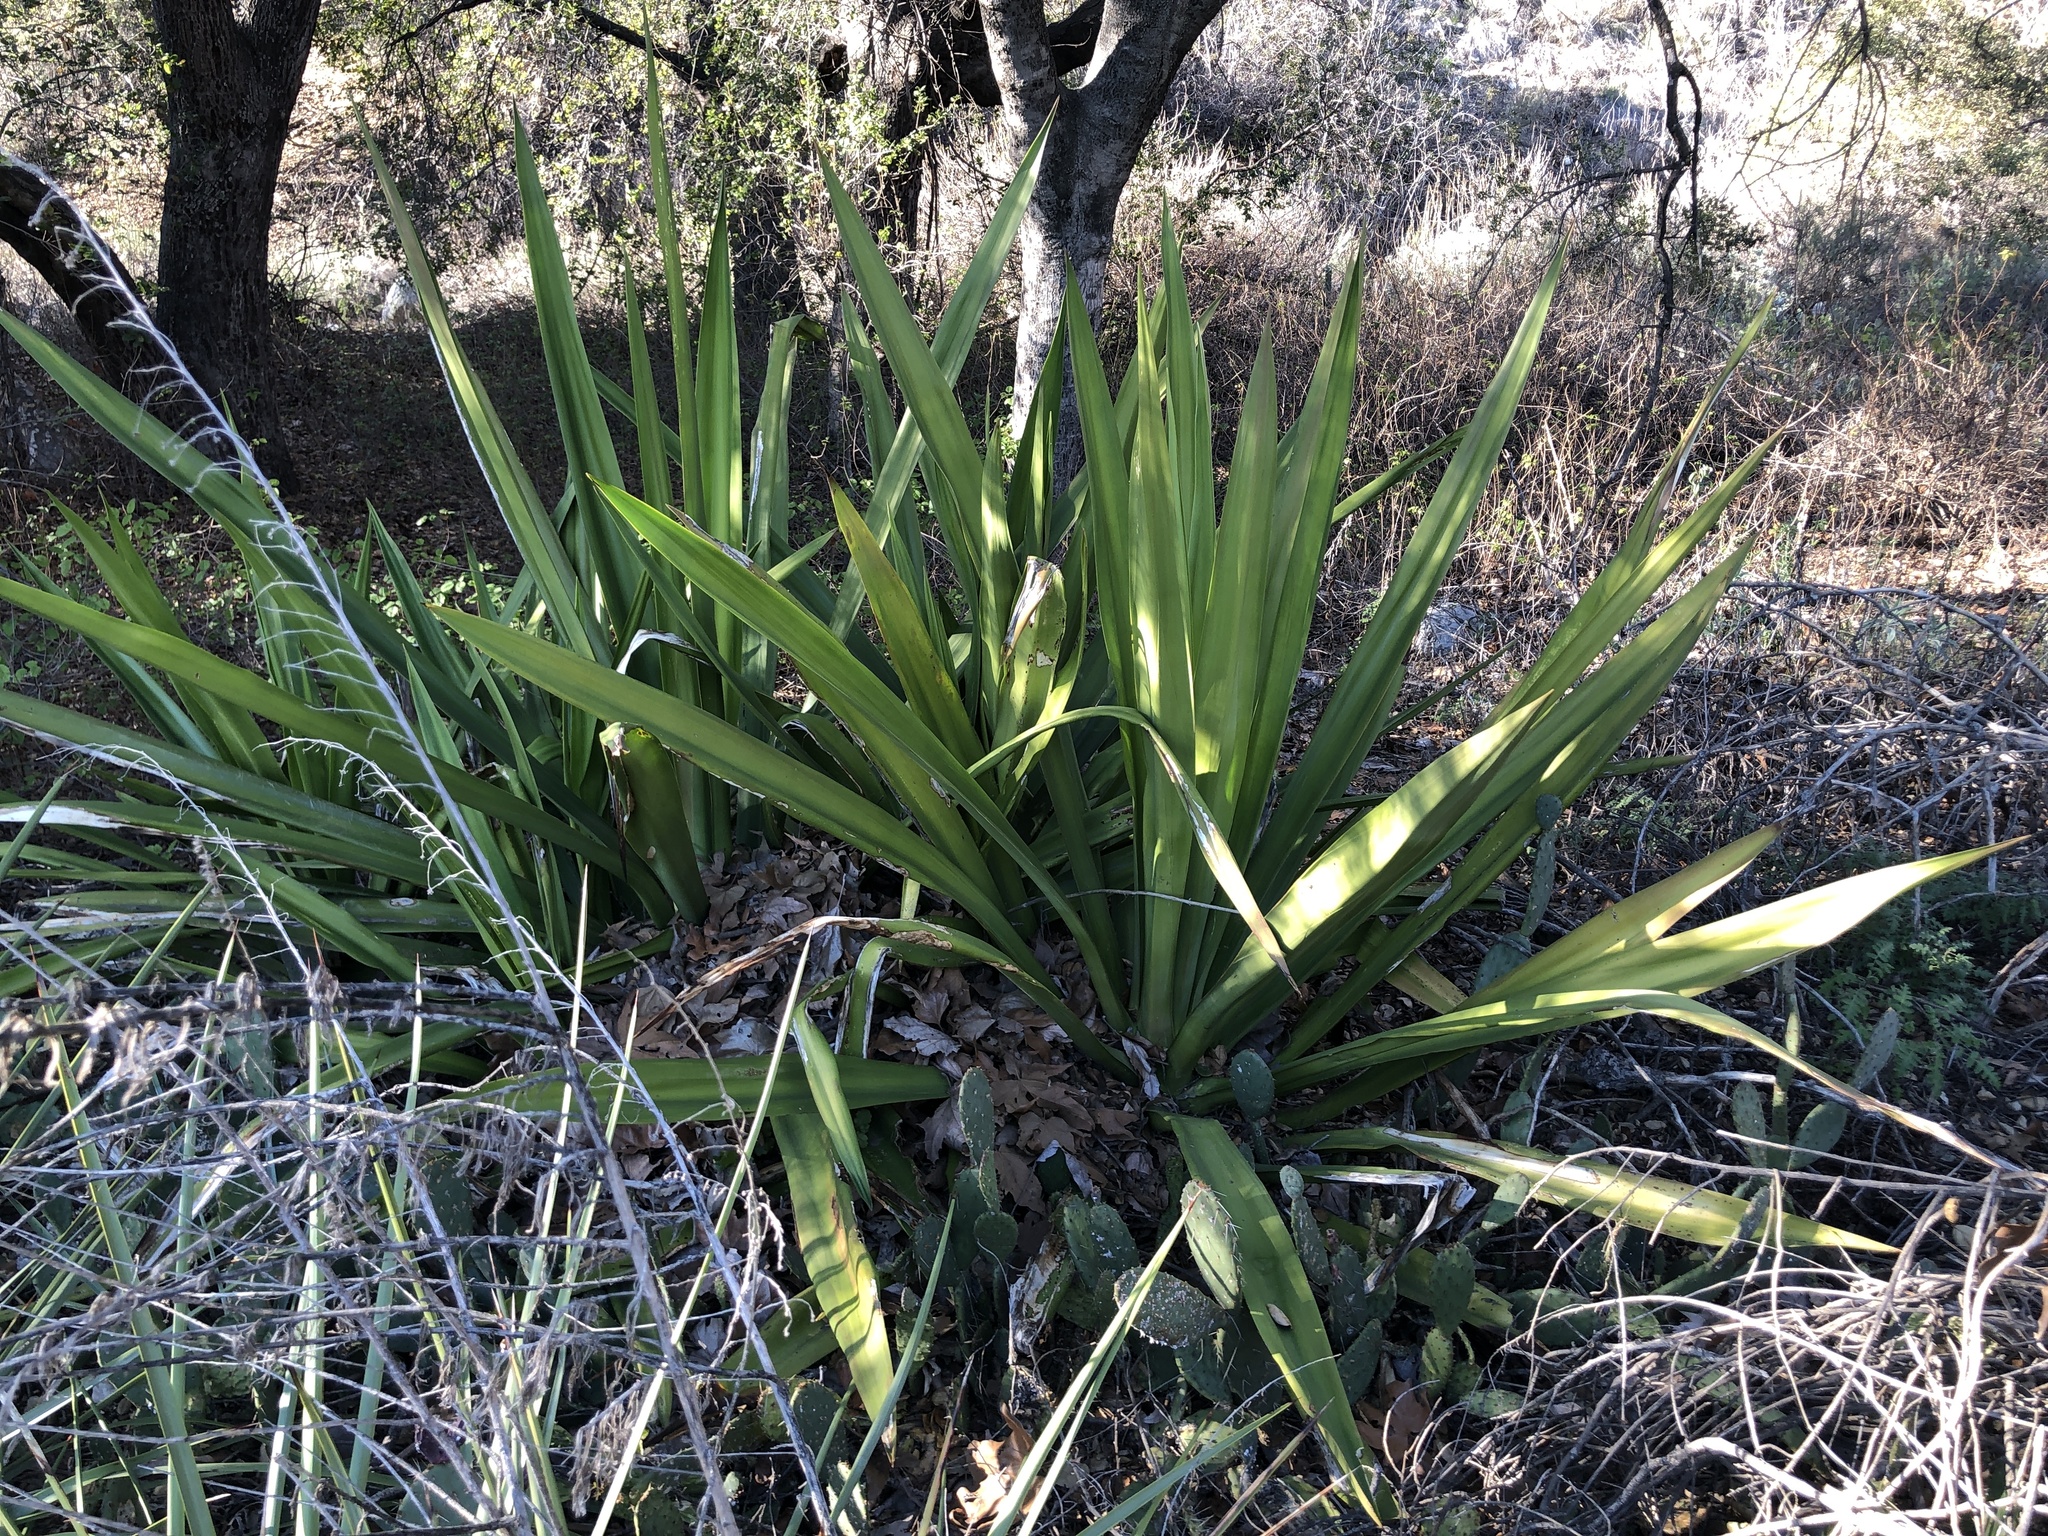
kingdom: Plantae
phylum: Tracheophyta
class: Liliopsida
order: Asparagales
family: Asparagaceae
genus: Furcraea
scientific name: Furcraea foetida
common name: Mauritius hemp
